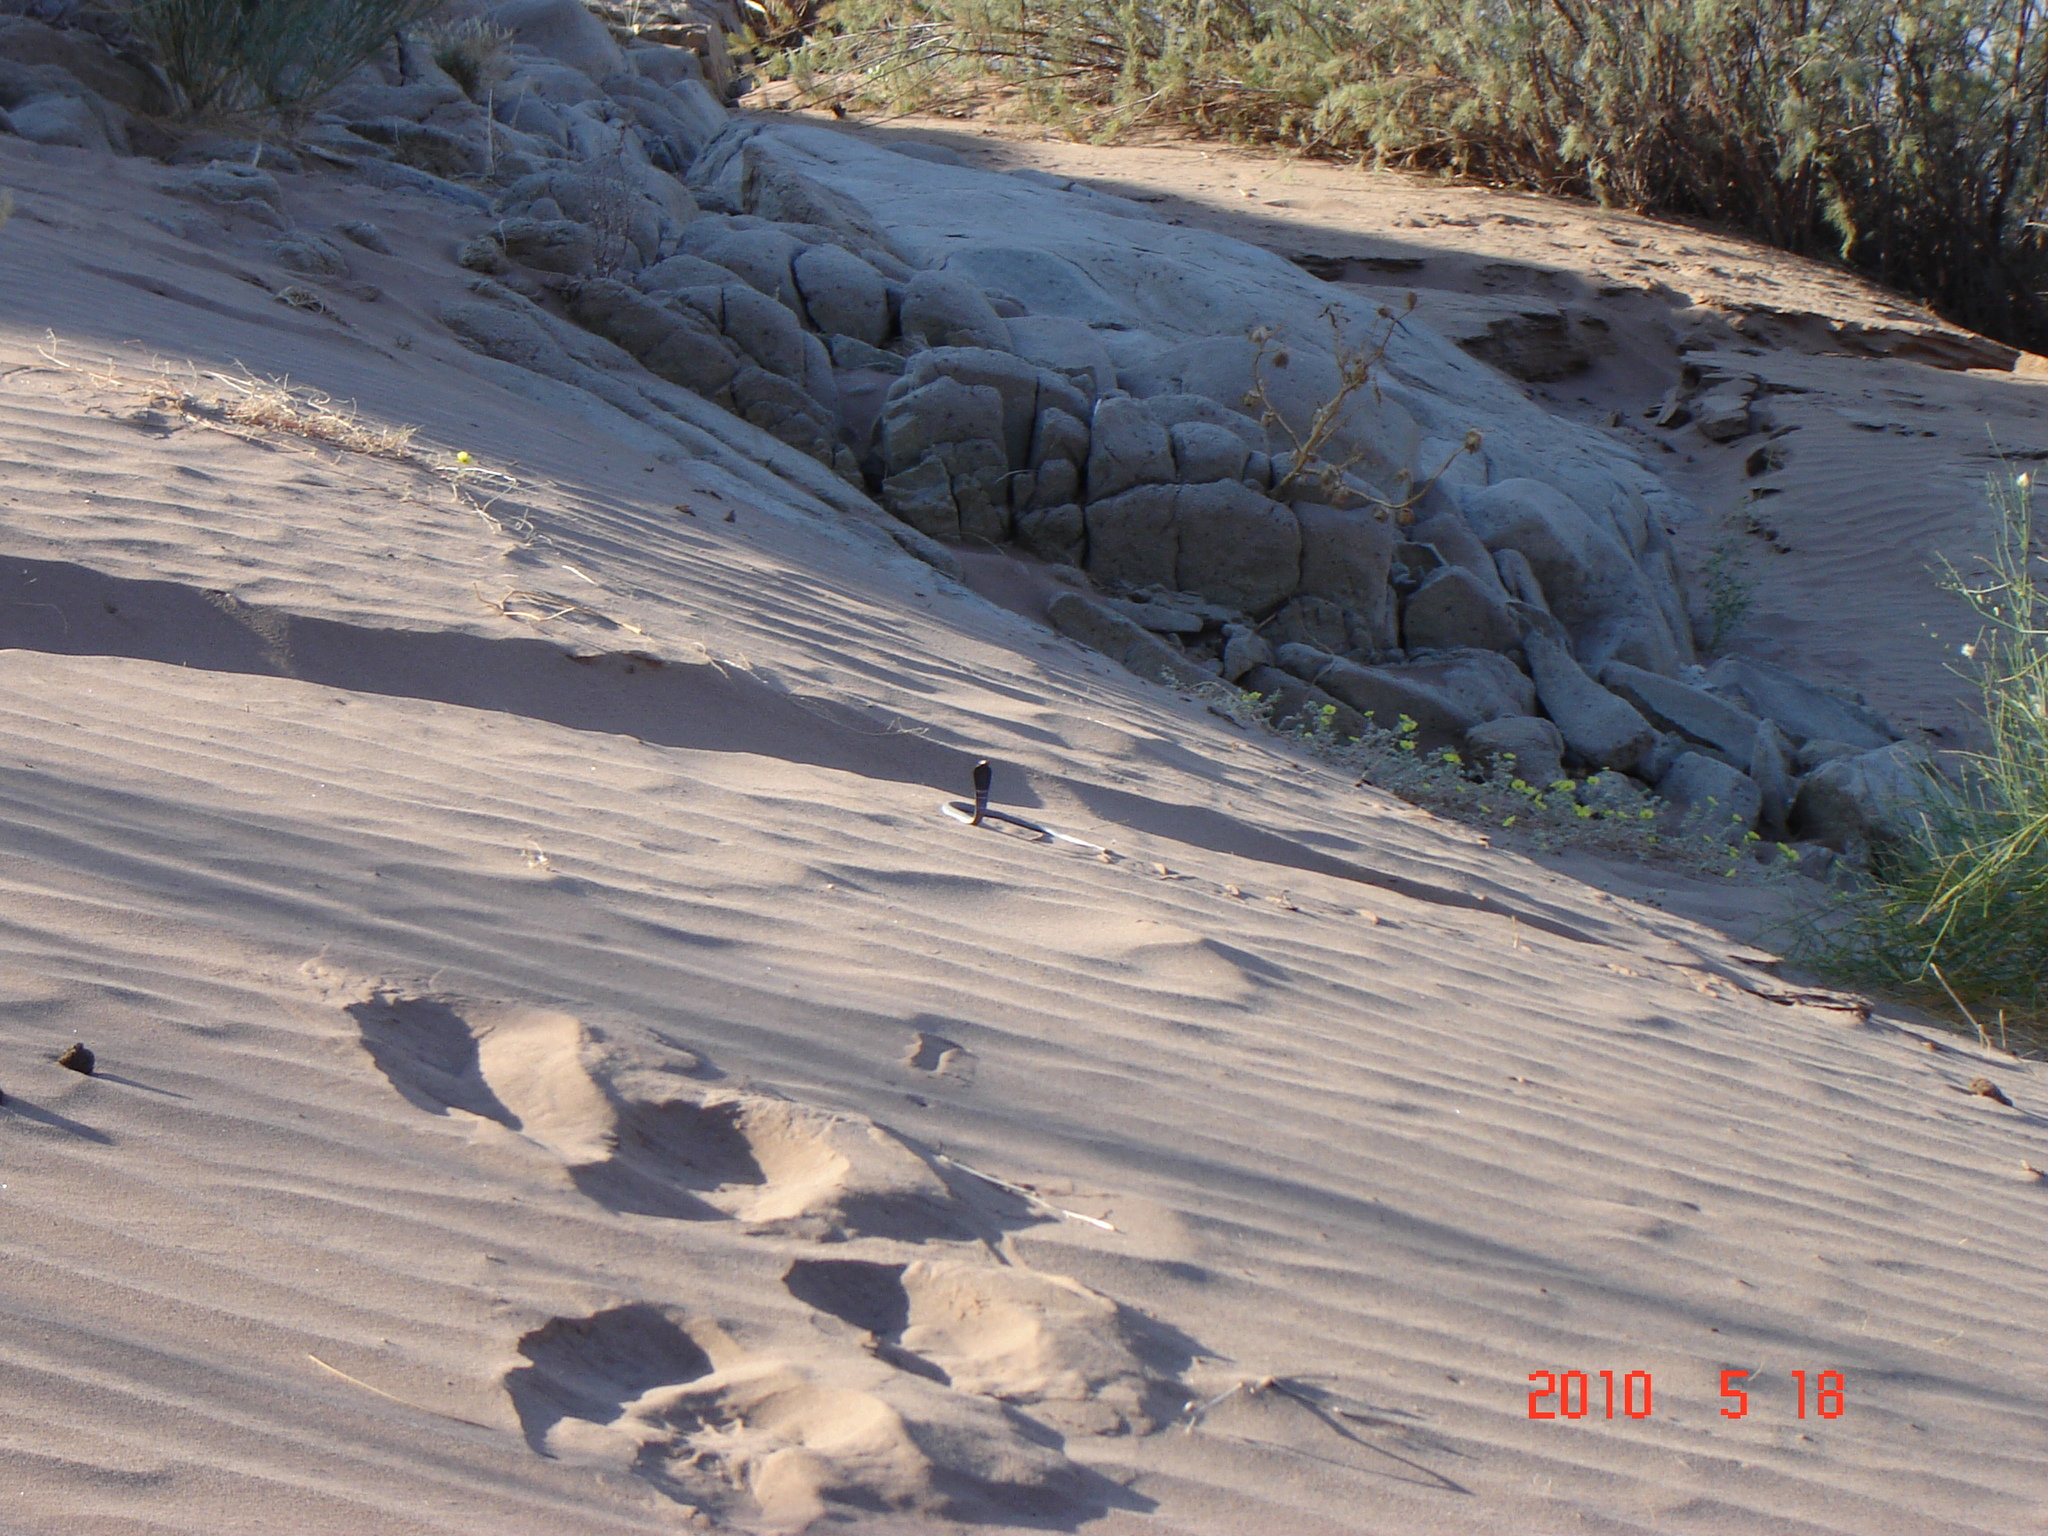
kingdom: Animalia
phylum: Chordata
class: Squamata
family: Elapidae
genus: Naja
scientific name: Naja nigricincta
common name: Black spitting cobra
